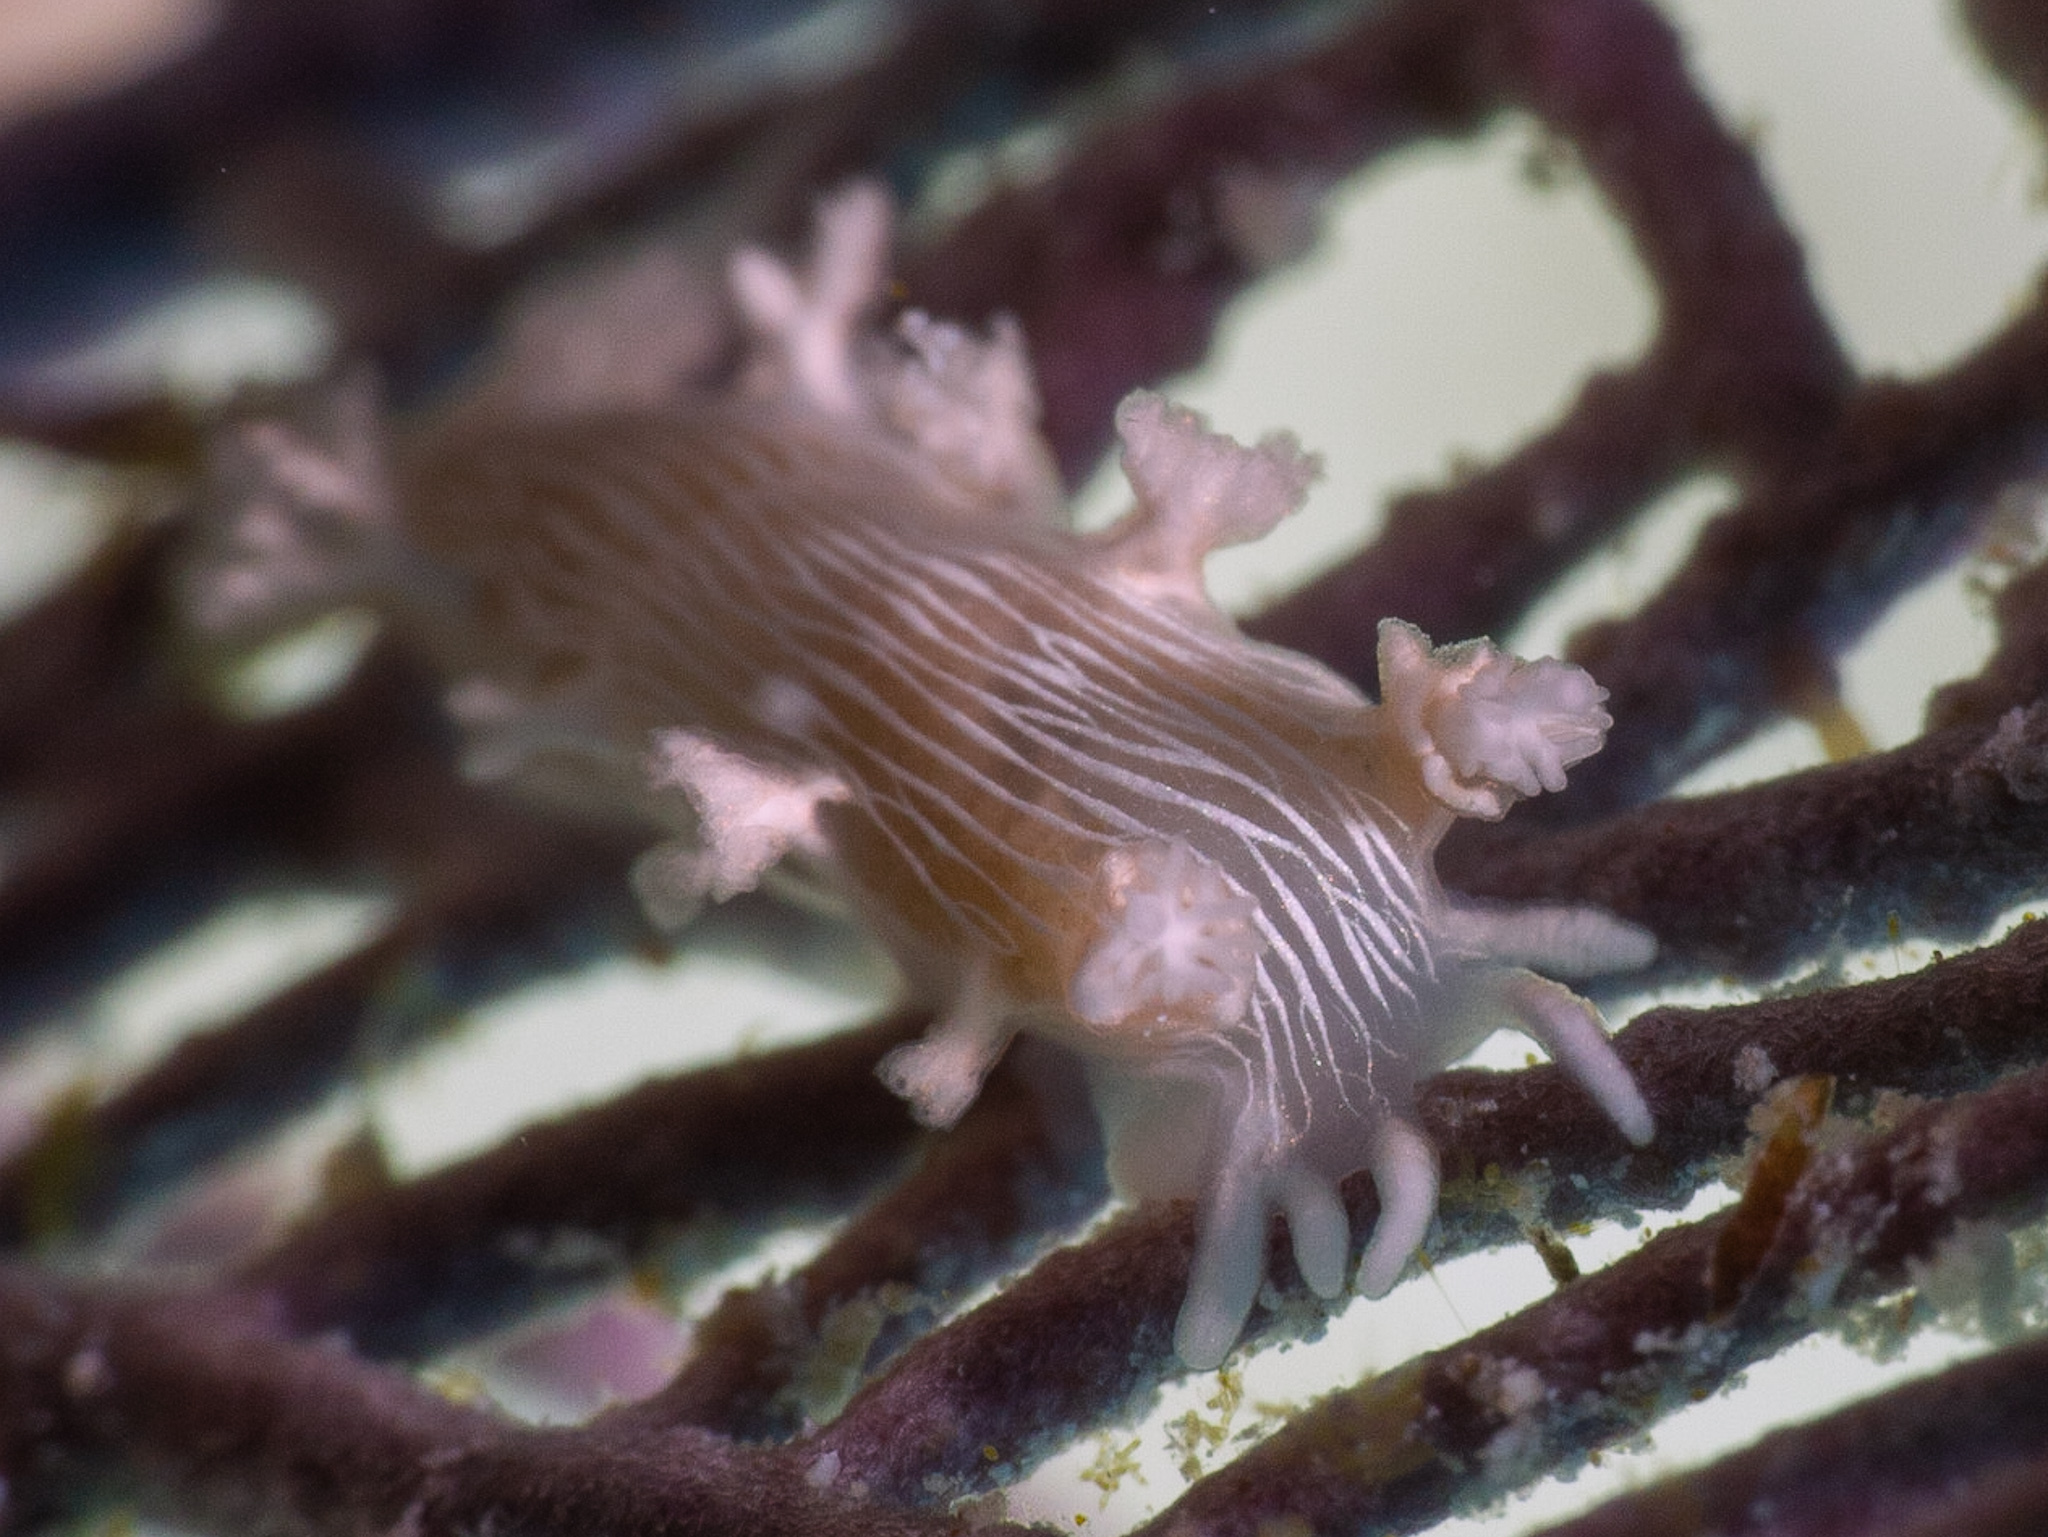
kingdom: Animalia
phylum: Mollusca
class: Gastropoda
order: Nudibranchia
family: Tritoniidae
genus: Tritonicula
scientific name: Tritonicula hamnerorum
